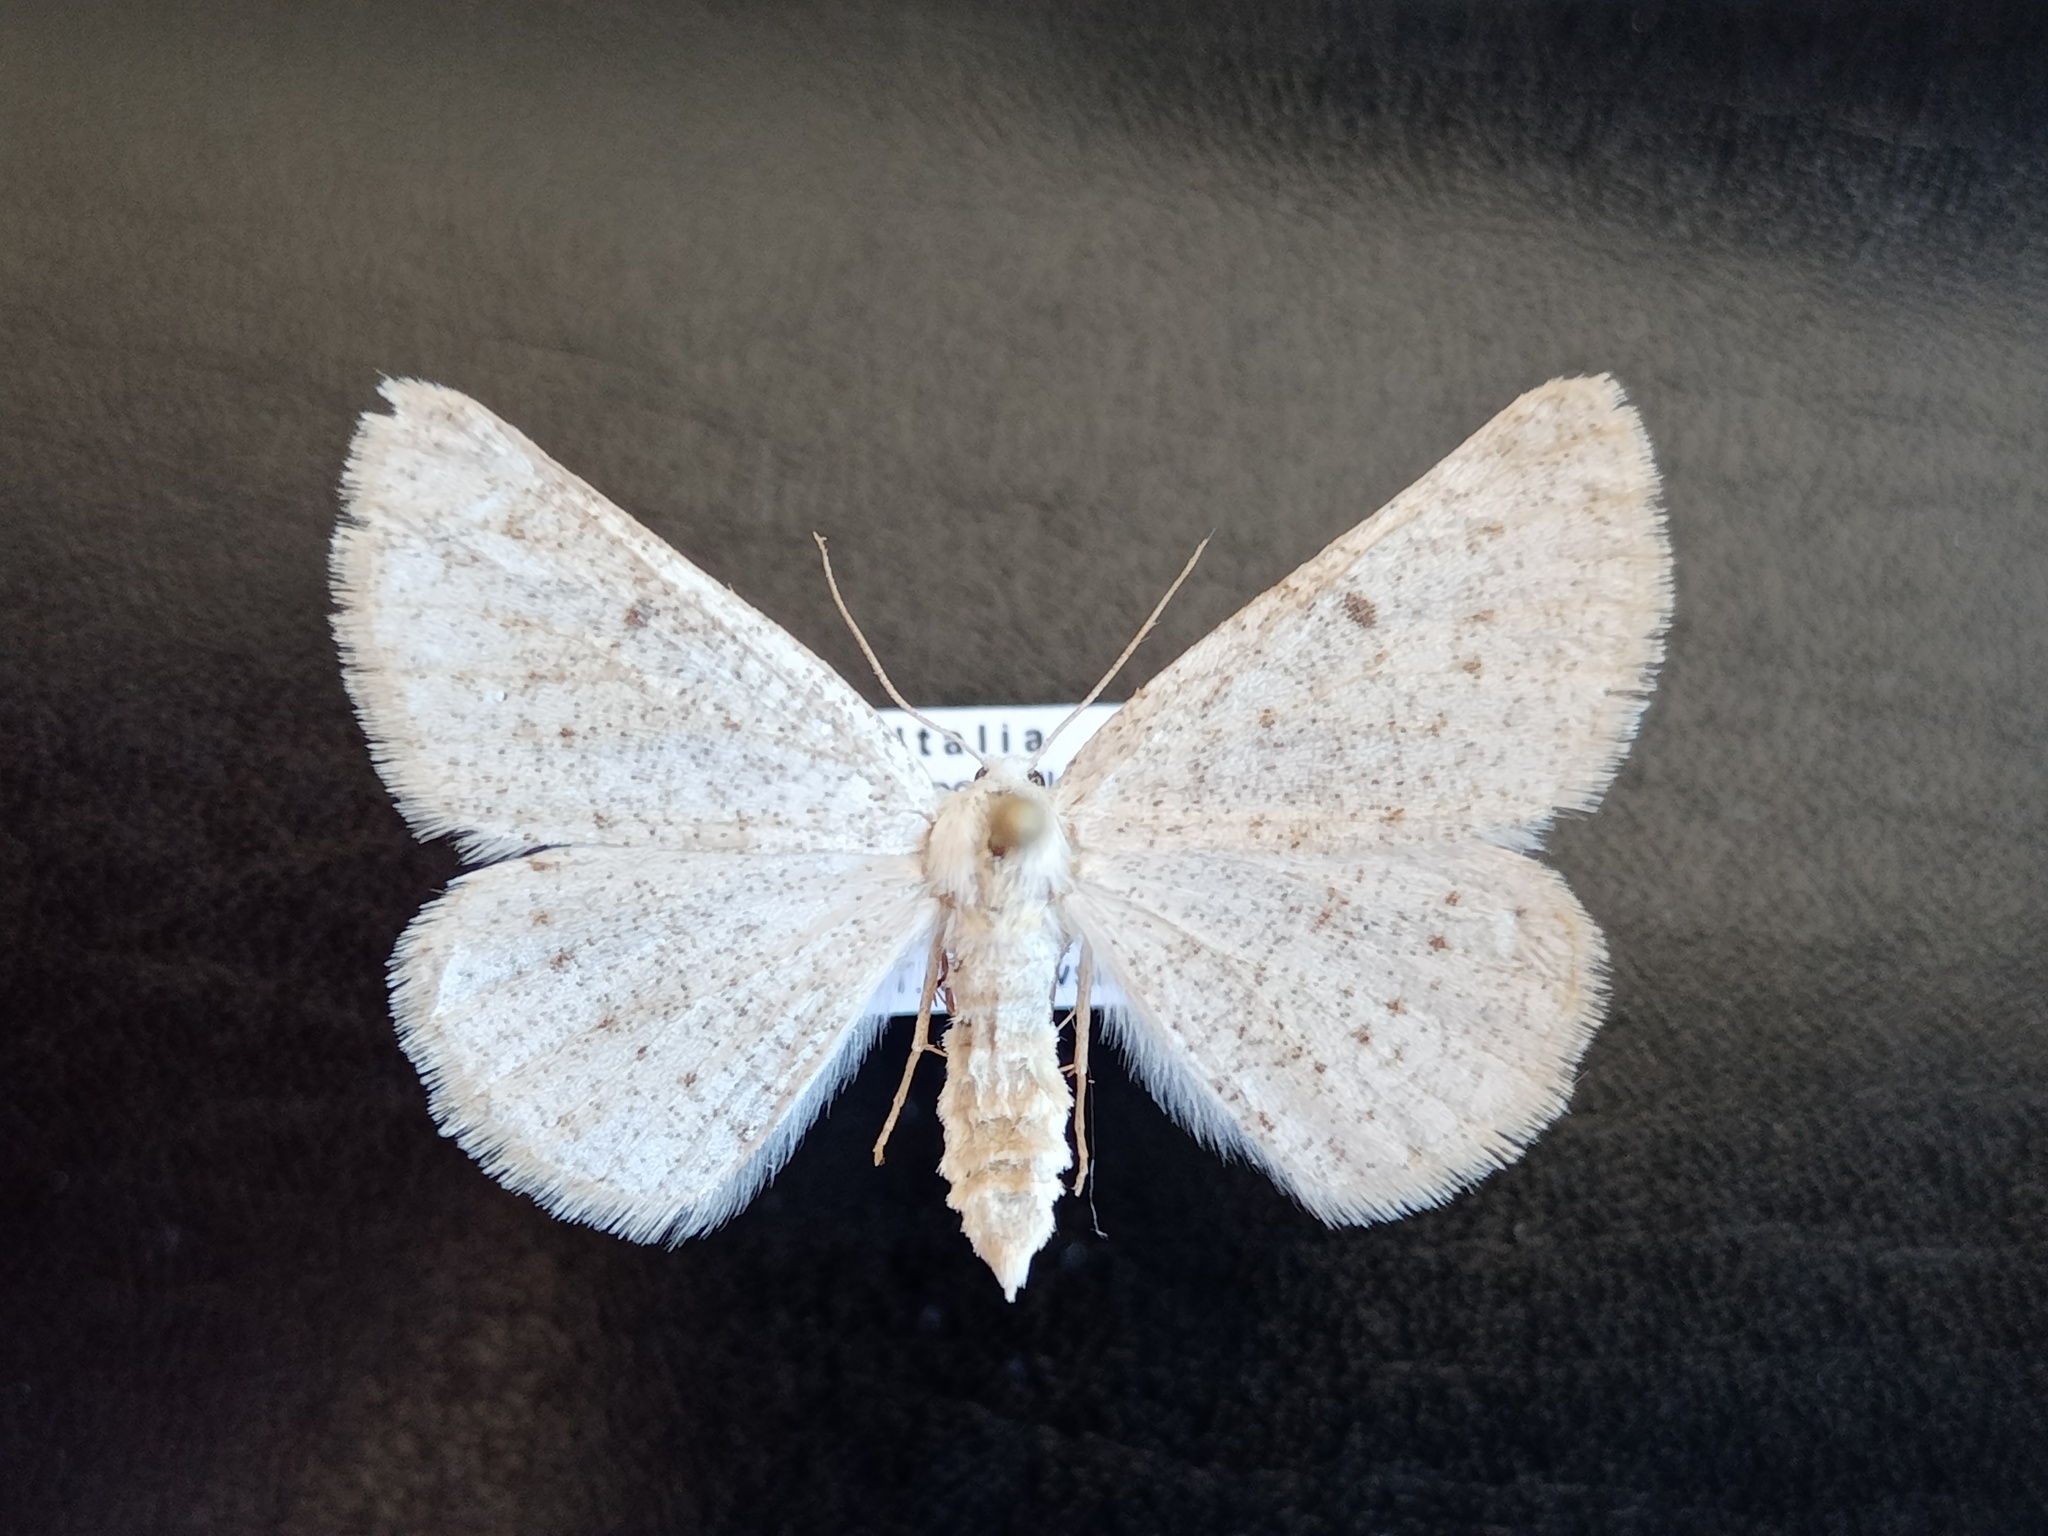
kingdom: Animalia
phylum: Arthropoda
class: Insecta
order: Lepidoptera
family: Geometridae
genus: Dyscia
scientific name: Dyscia raunaria
